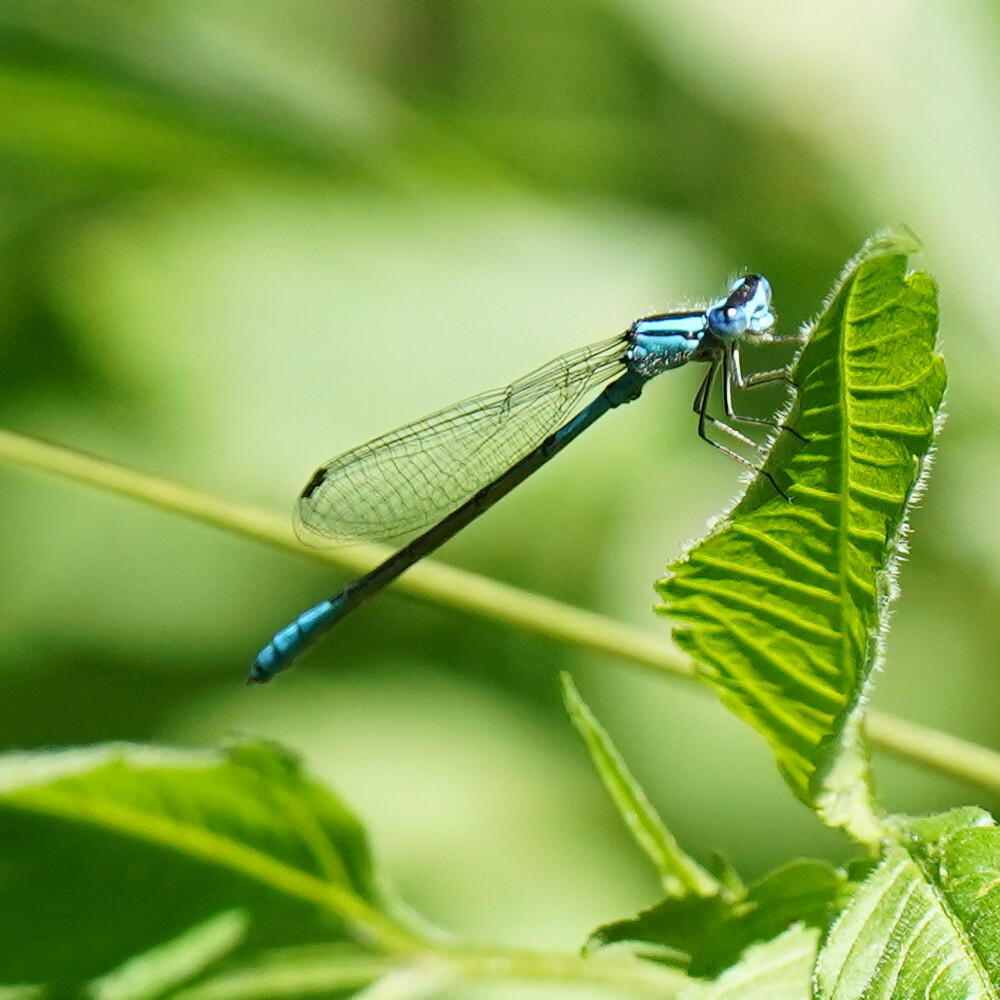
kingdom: Animalia
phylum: Arthropoda
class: Insecta
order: Odonata
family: Coenagrionidae
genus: Enallagma
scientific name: Enallagma aspersum
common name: Azure bluet
